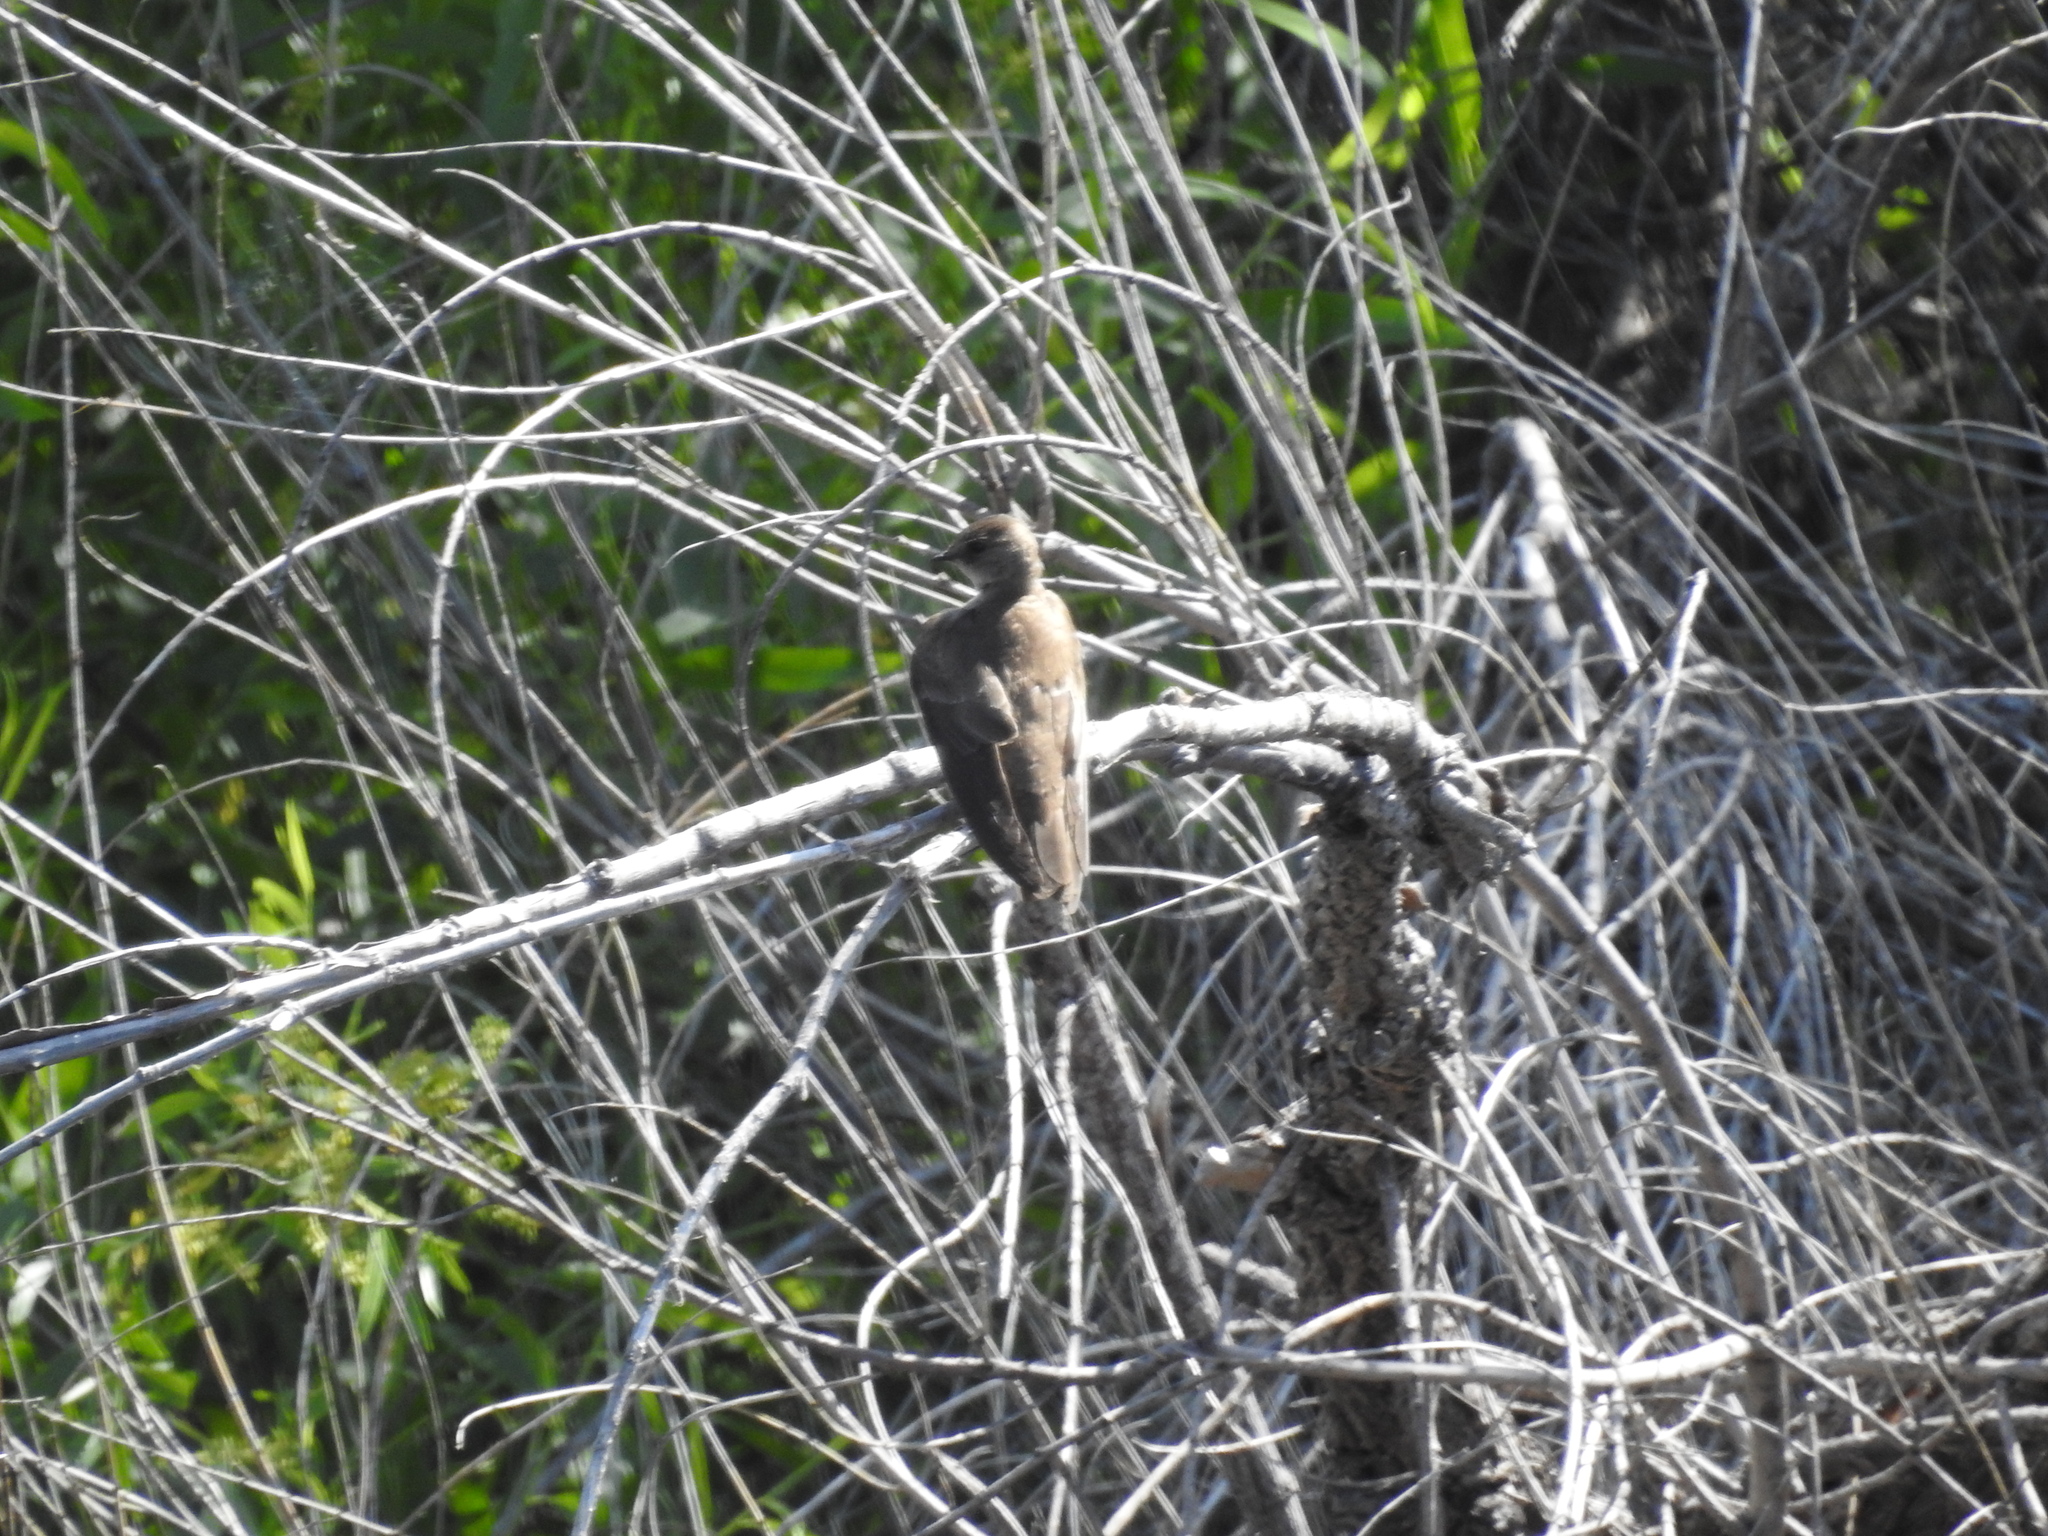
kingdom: Animalia
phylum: Chordata
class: Aves
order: Passeriformes
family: Hirundinidae
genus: Stelgidopteryx
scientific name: Stelgidopteryx serripennis
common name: Northern rough-winged swallow
